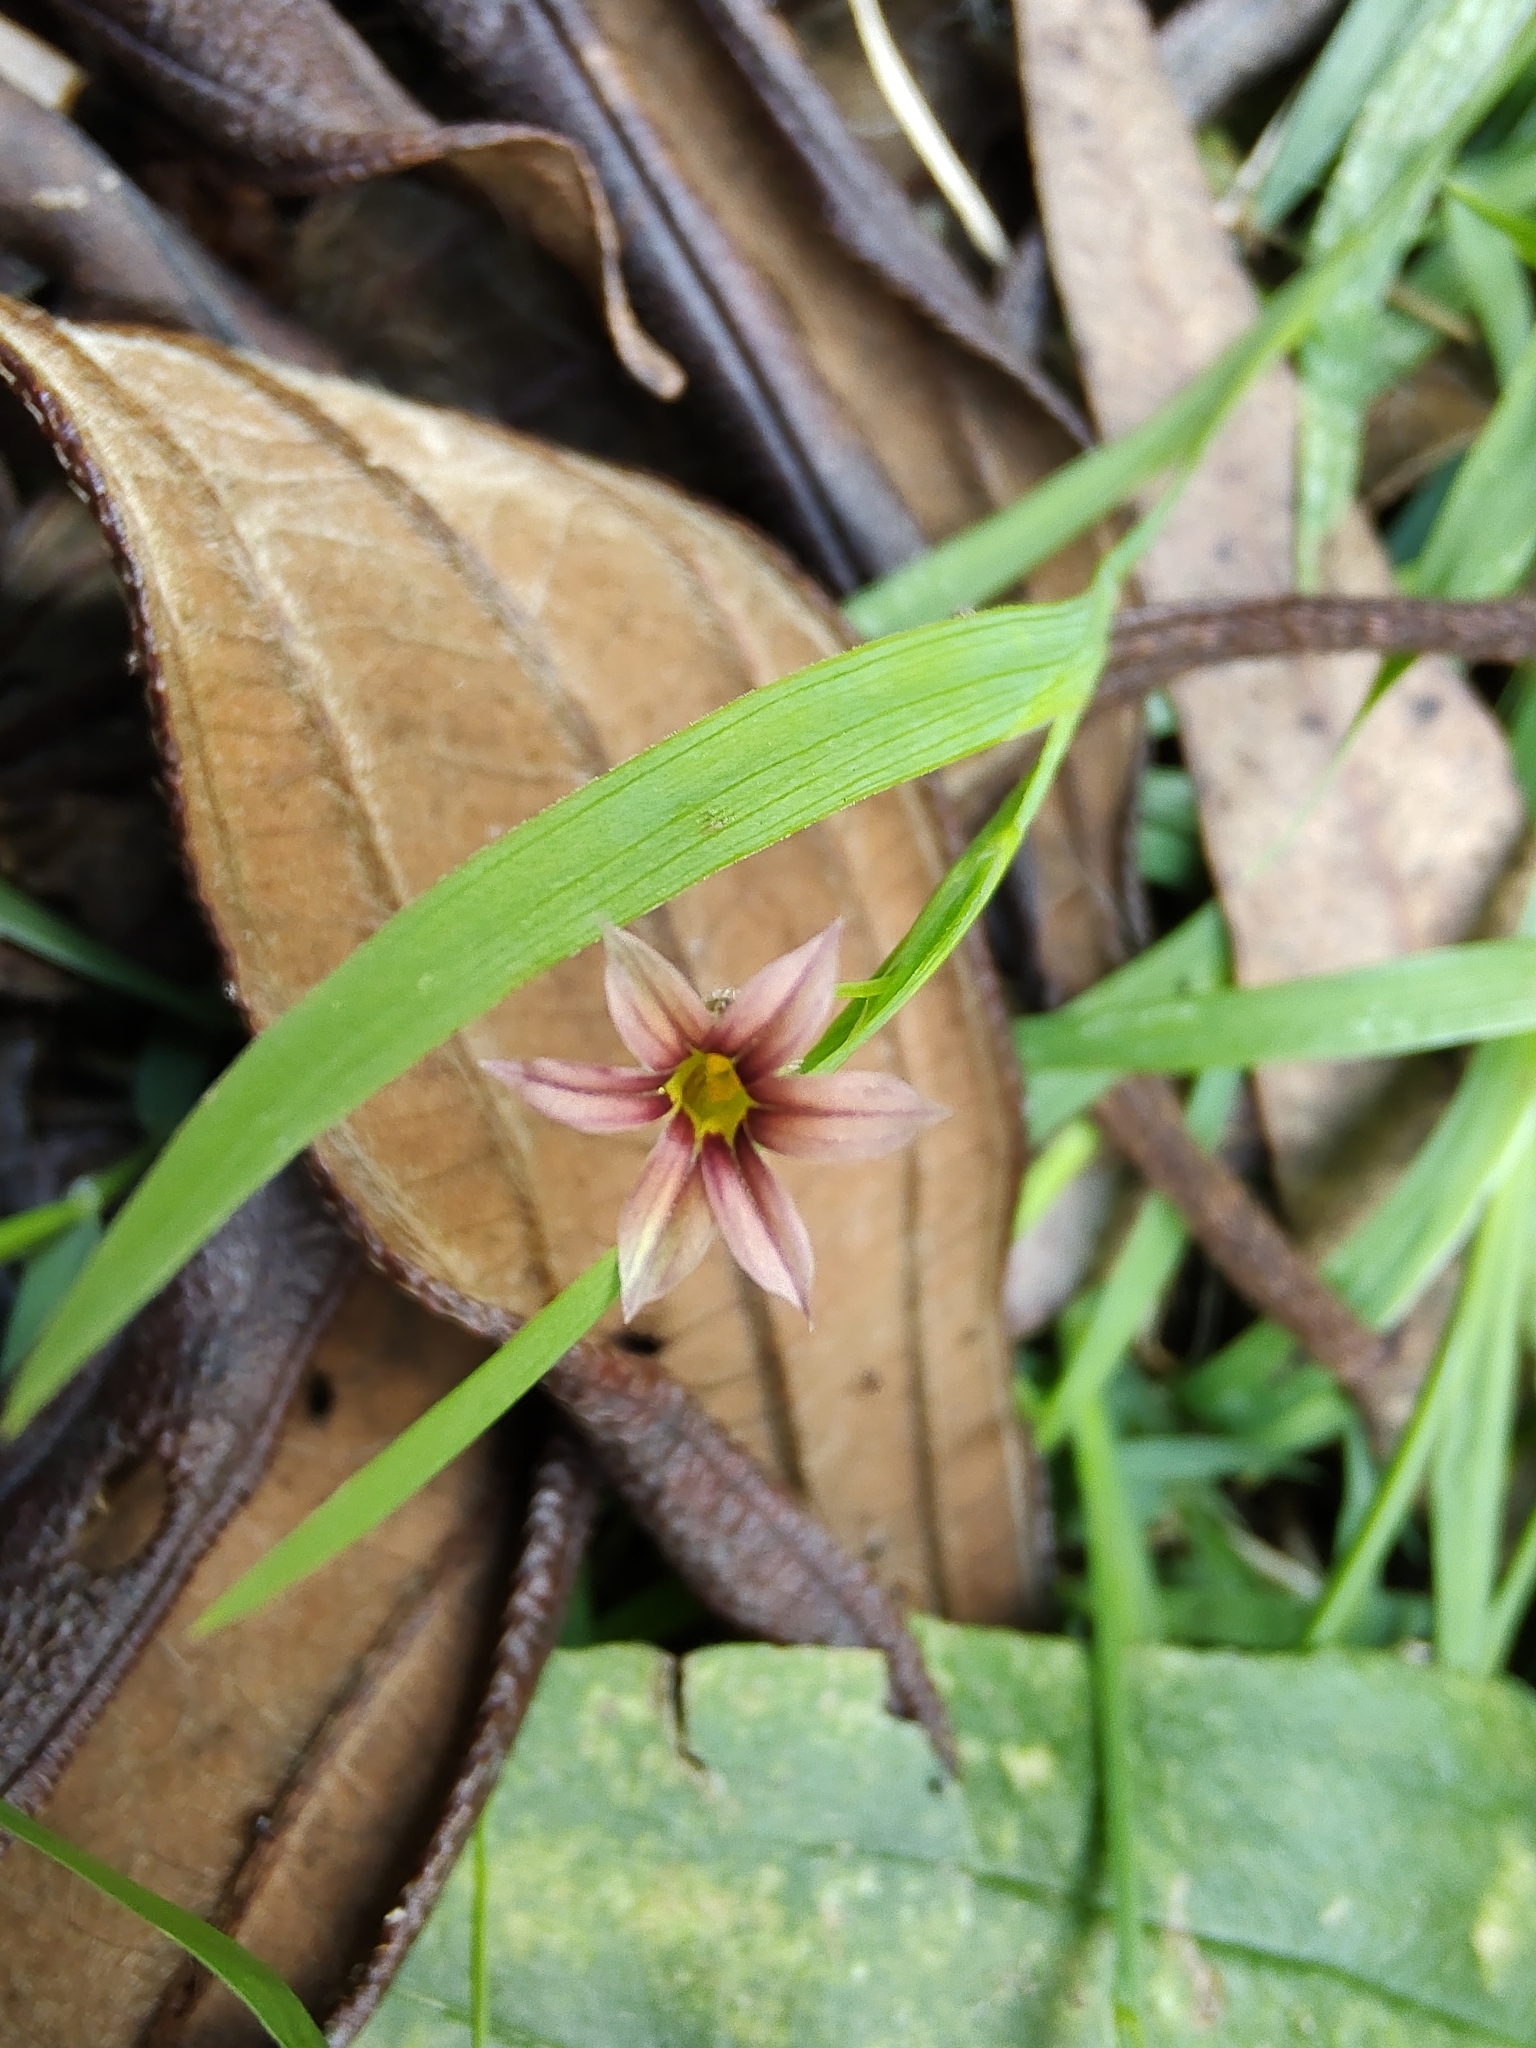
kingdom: Plantae
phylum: Tracheophyta
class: Liliopsida
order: Asparagales
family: Iridaceae
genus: Sisyrinchium
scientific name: Sisyrinchium micranthum
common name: Bermuda pigroot
